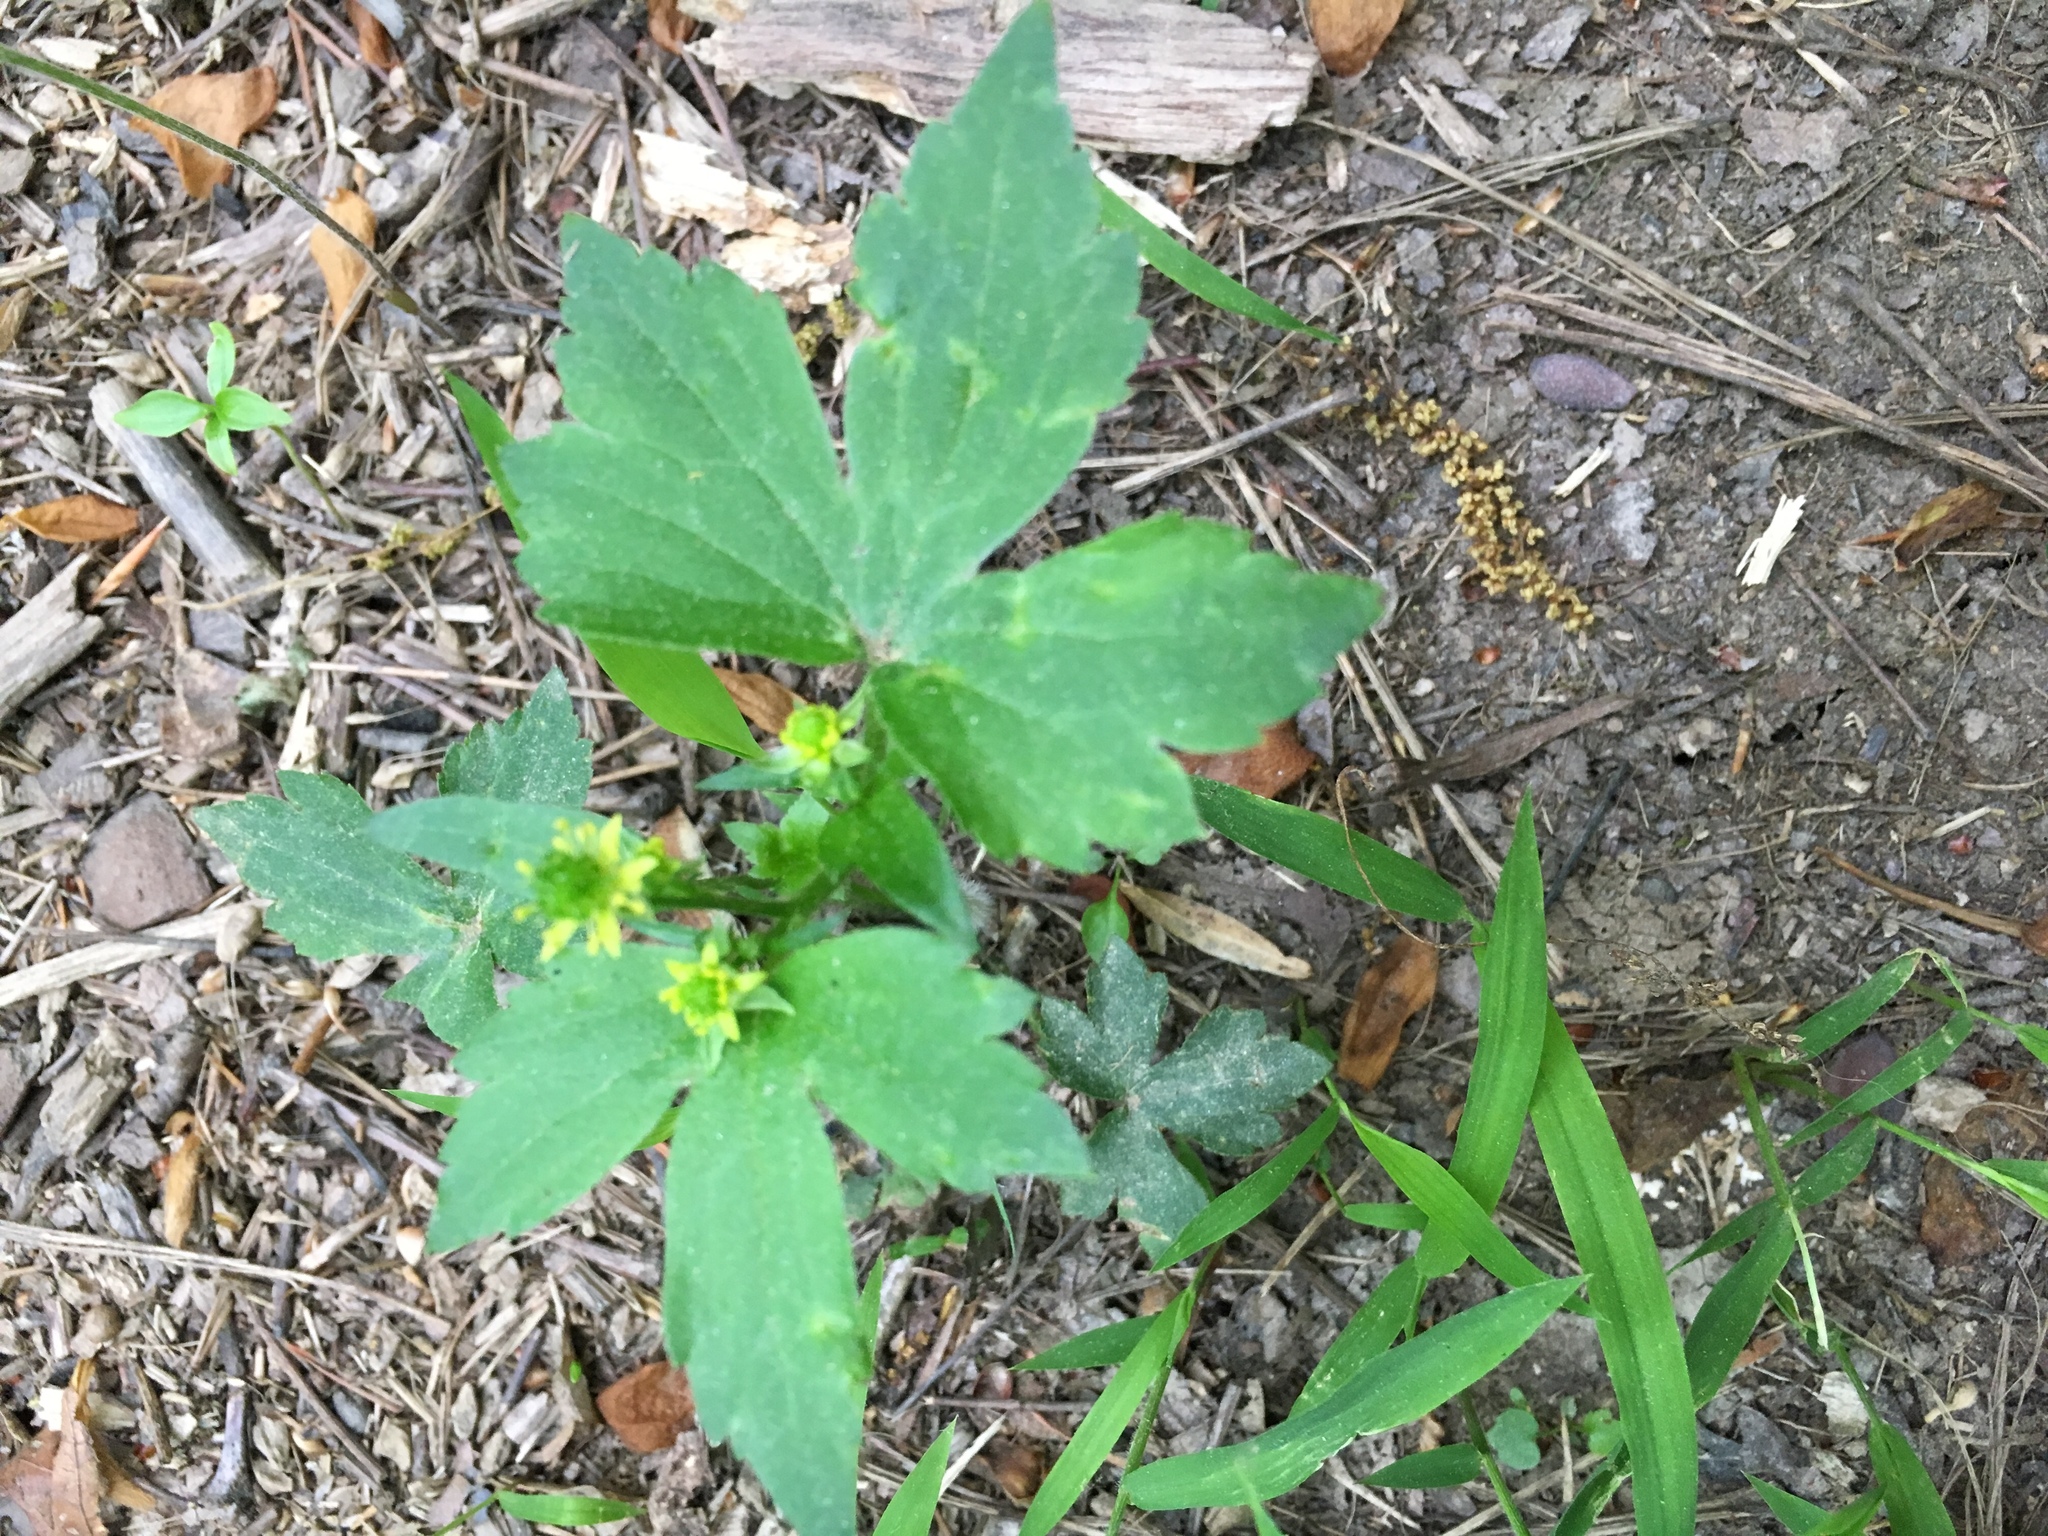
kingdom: Plantae
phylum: Tracheophyta
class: Magnoliopsida
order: Ranunculales
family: Ranunculaceae
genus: Ranunculus
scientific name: Ranunculus recurvatus
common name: Blisterwort
